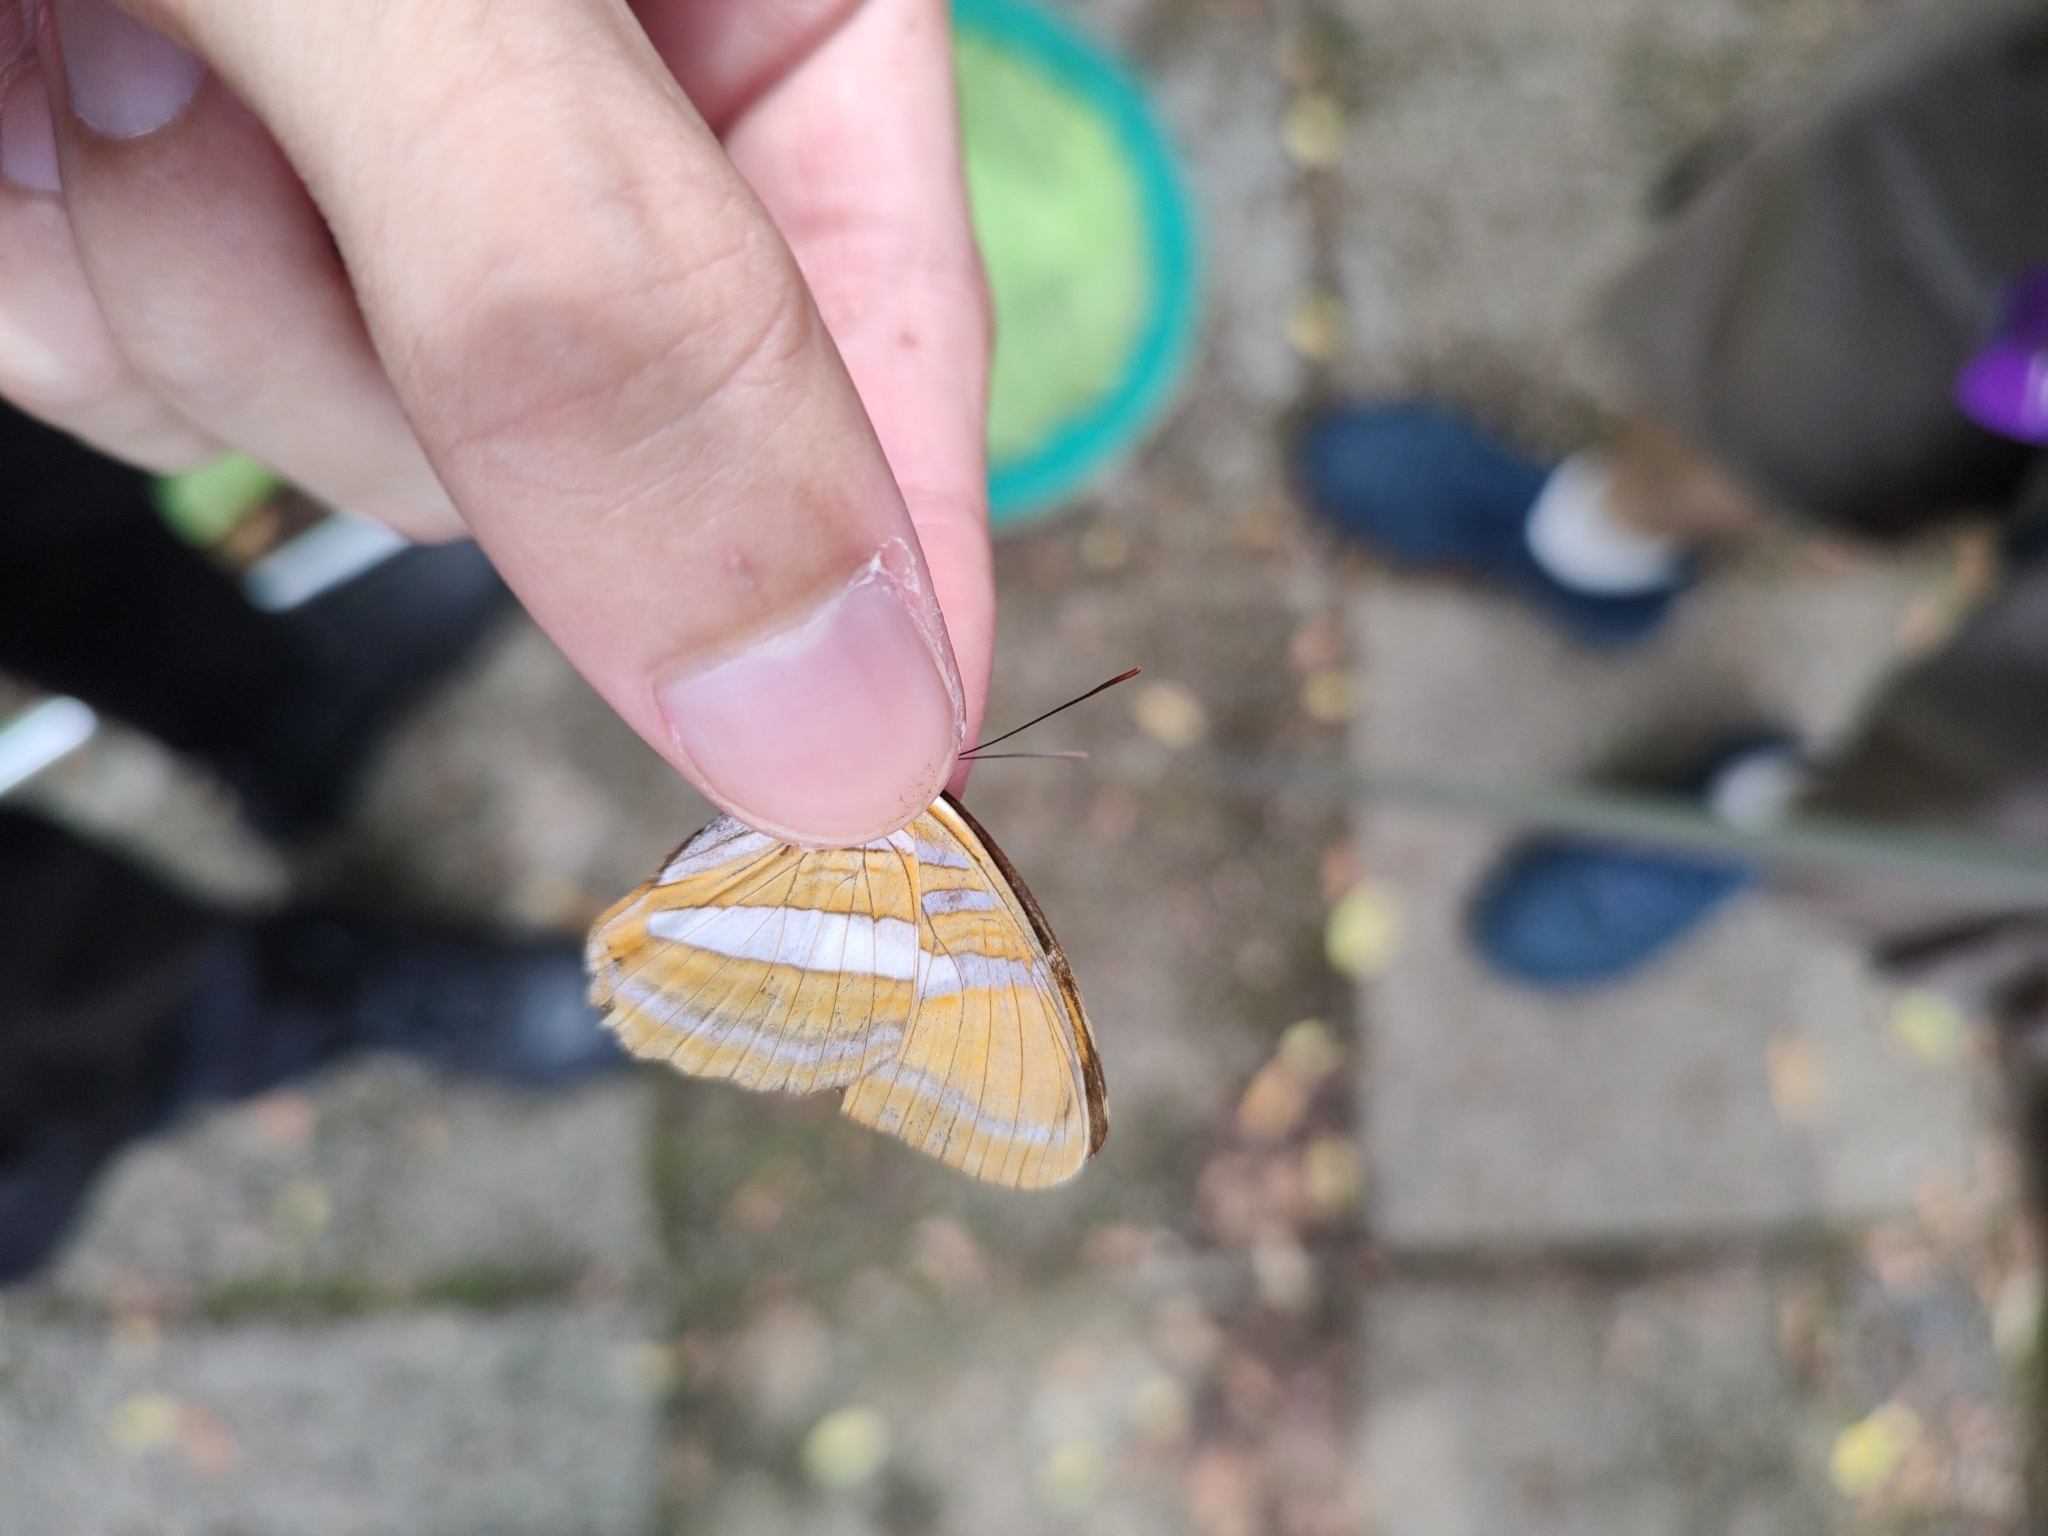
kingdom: Animalia
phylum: Arthropoda
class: Insecta
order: Lepidoptera
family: Nymphalidae
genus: Limenitis
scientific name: Limenitis mythra
